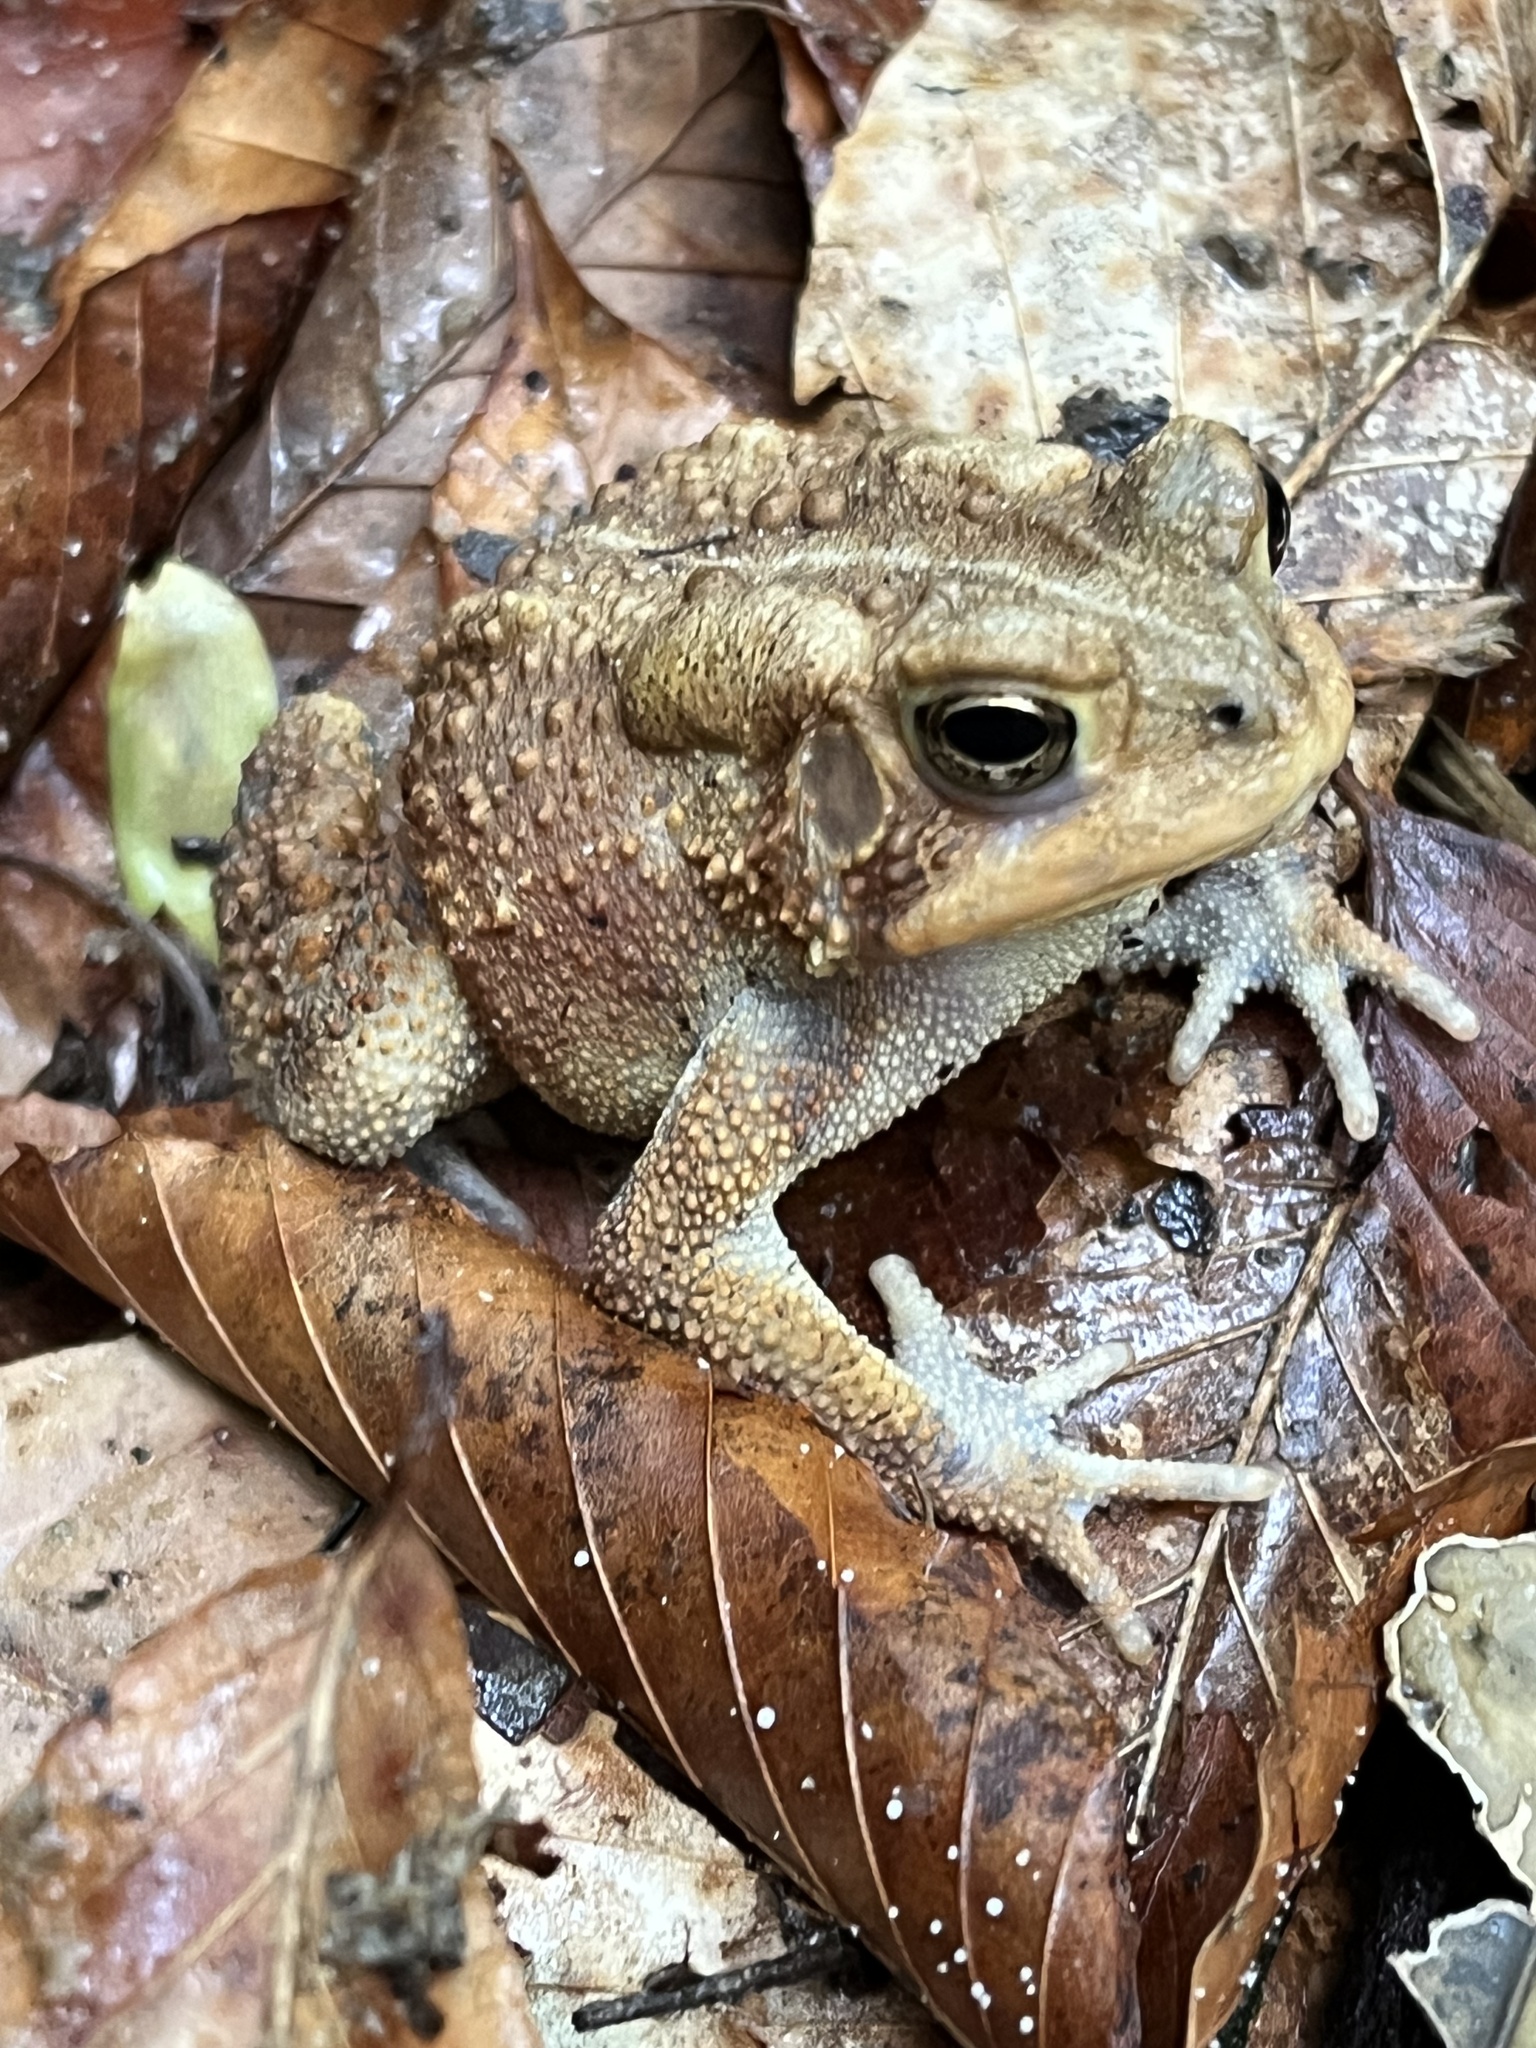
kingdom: Animalia
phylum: Chordata
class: Amphibia
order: Anura
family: Bufonidae
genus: Anaxyrus
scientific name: Anaxyrus americanus
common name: American toad
